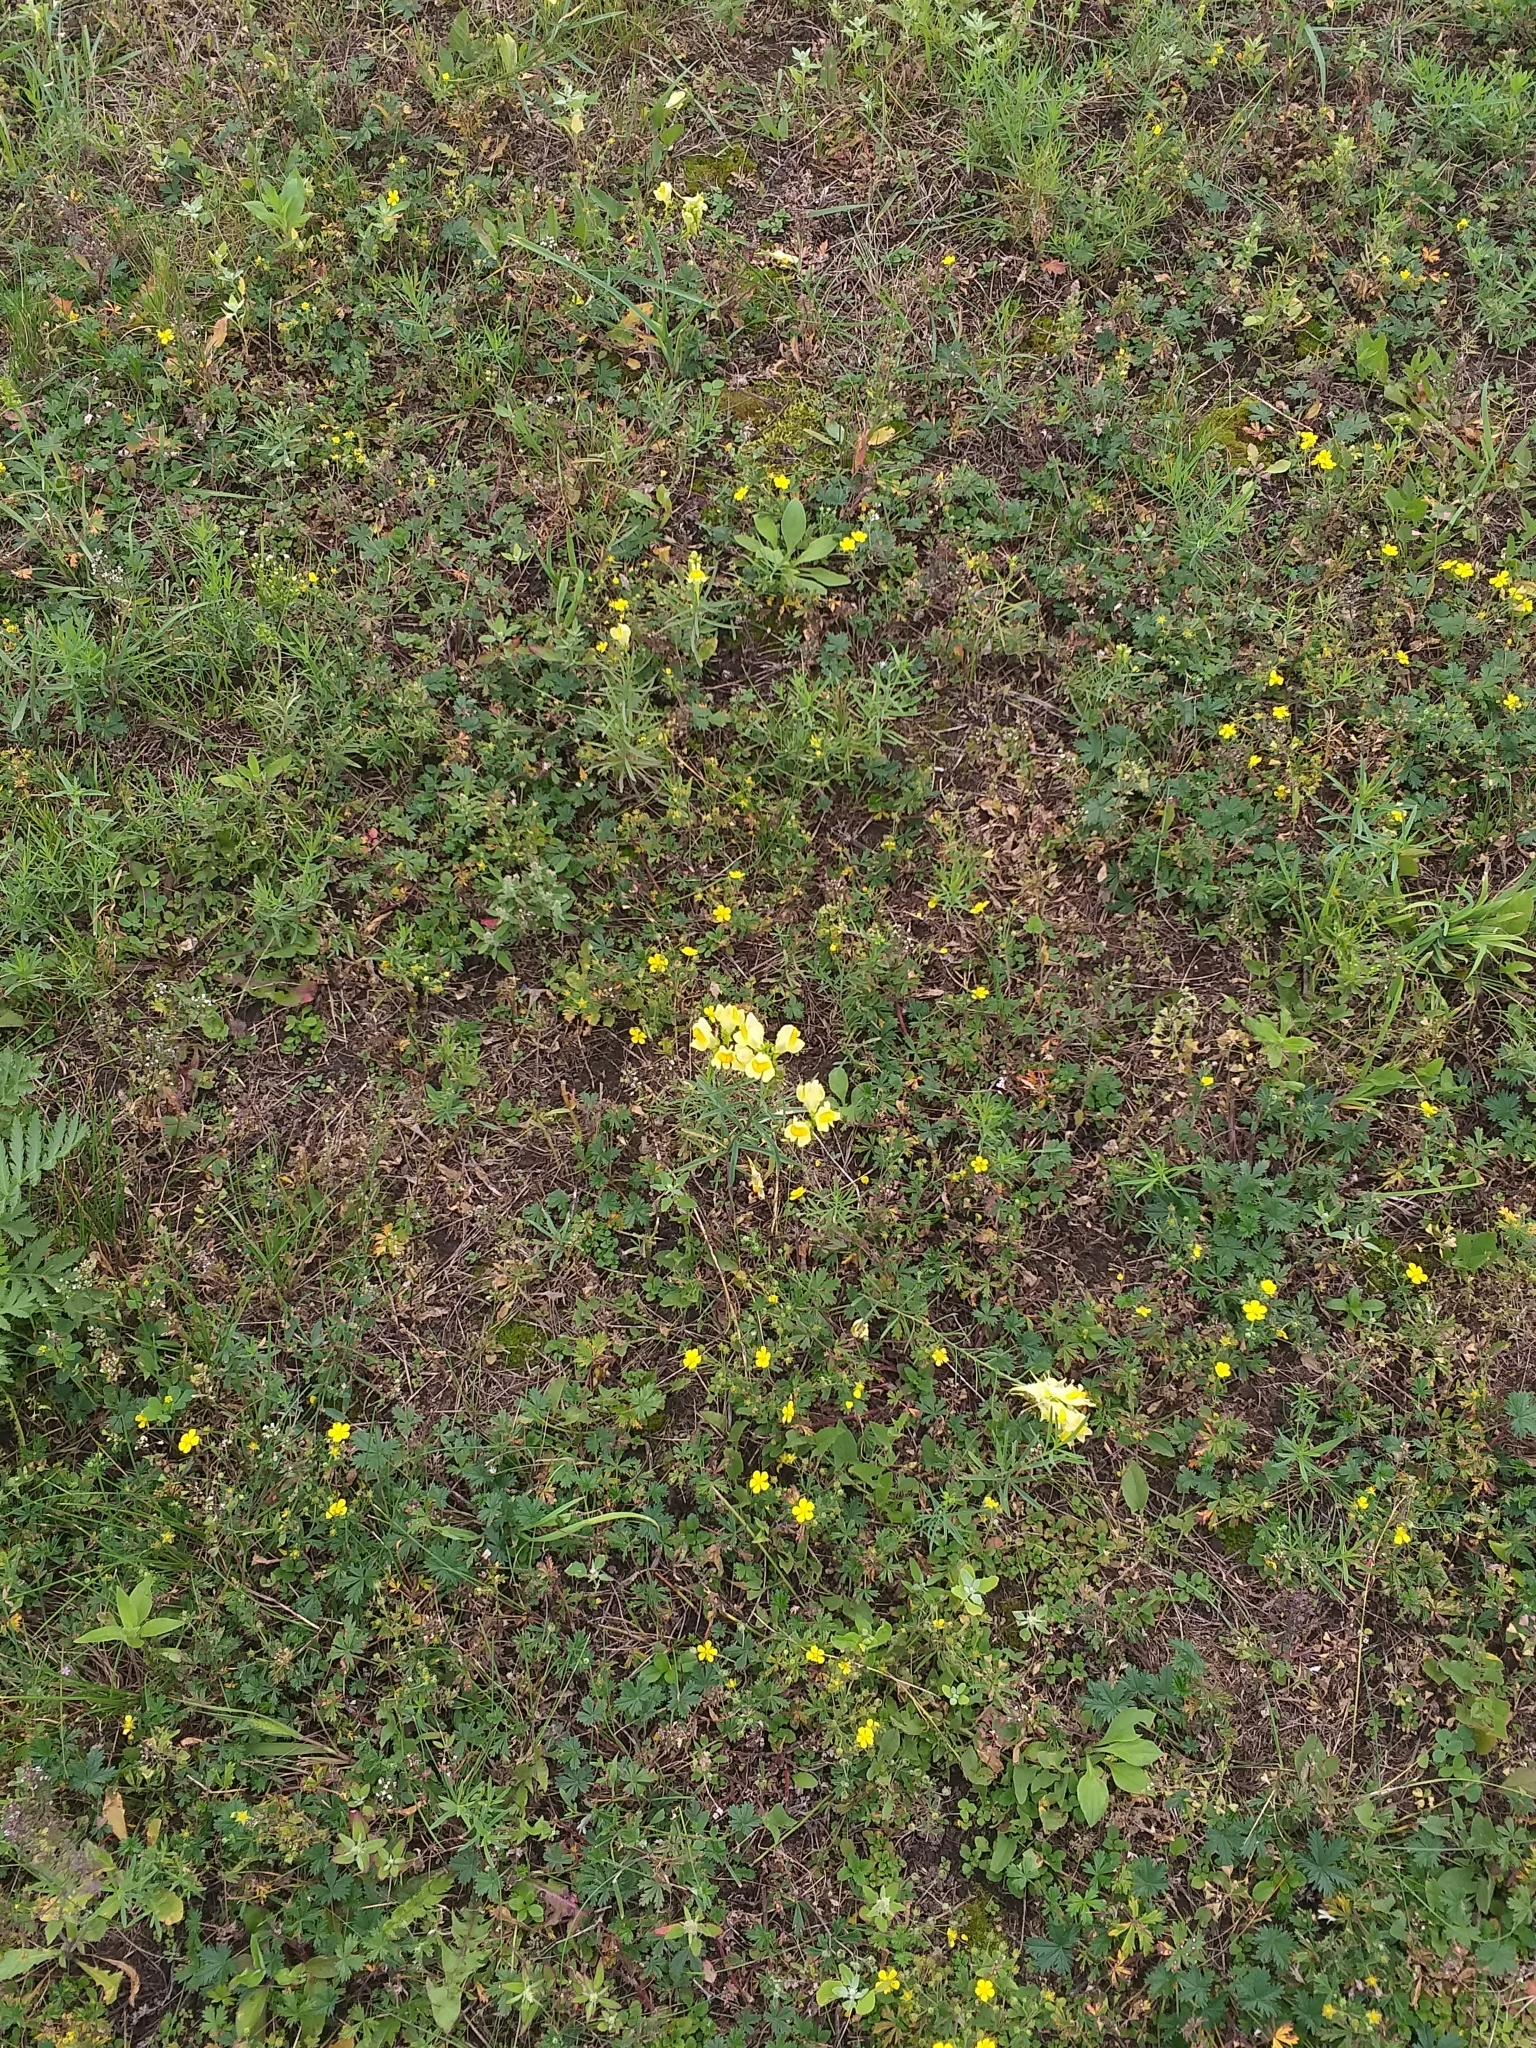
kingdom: Plantae
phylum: Tracheophyta
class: Magnoliopsida
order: Lamiales
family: Plantaginaceae
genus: Linaria
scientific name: Linaria vulgaris
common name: Butter and eggs
